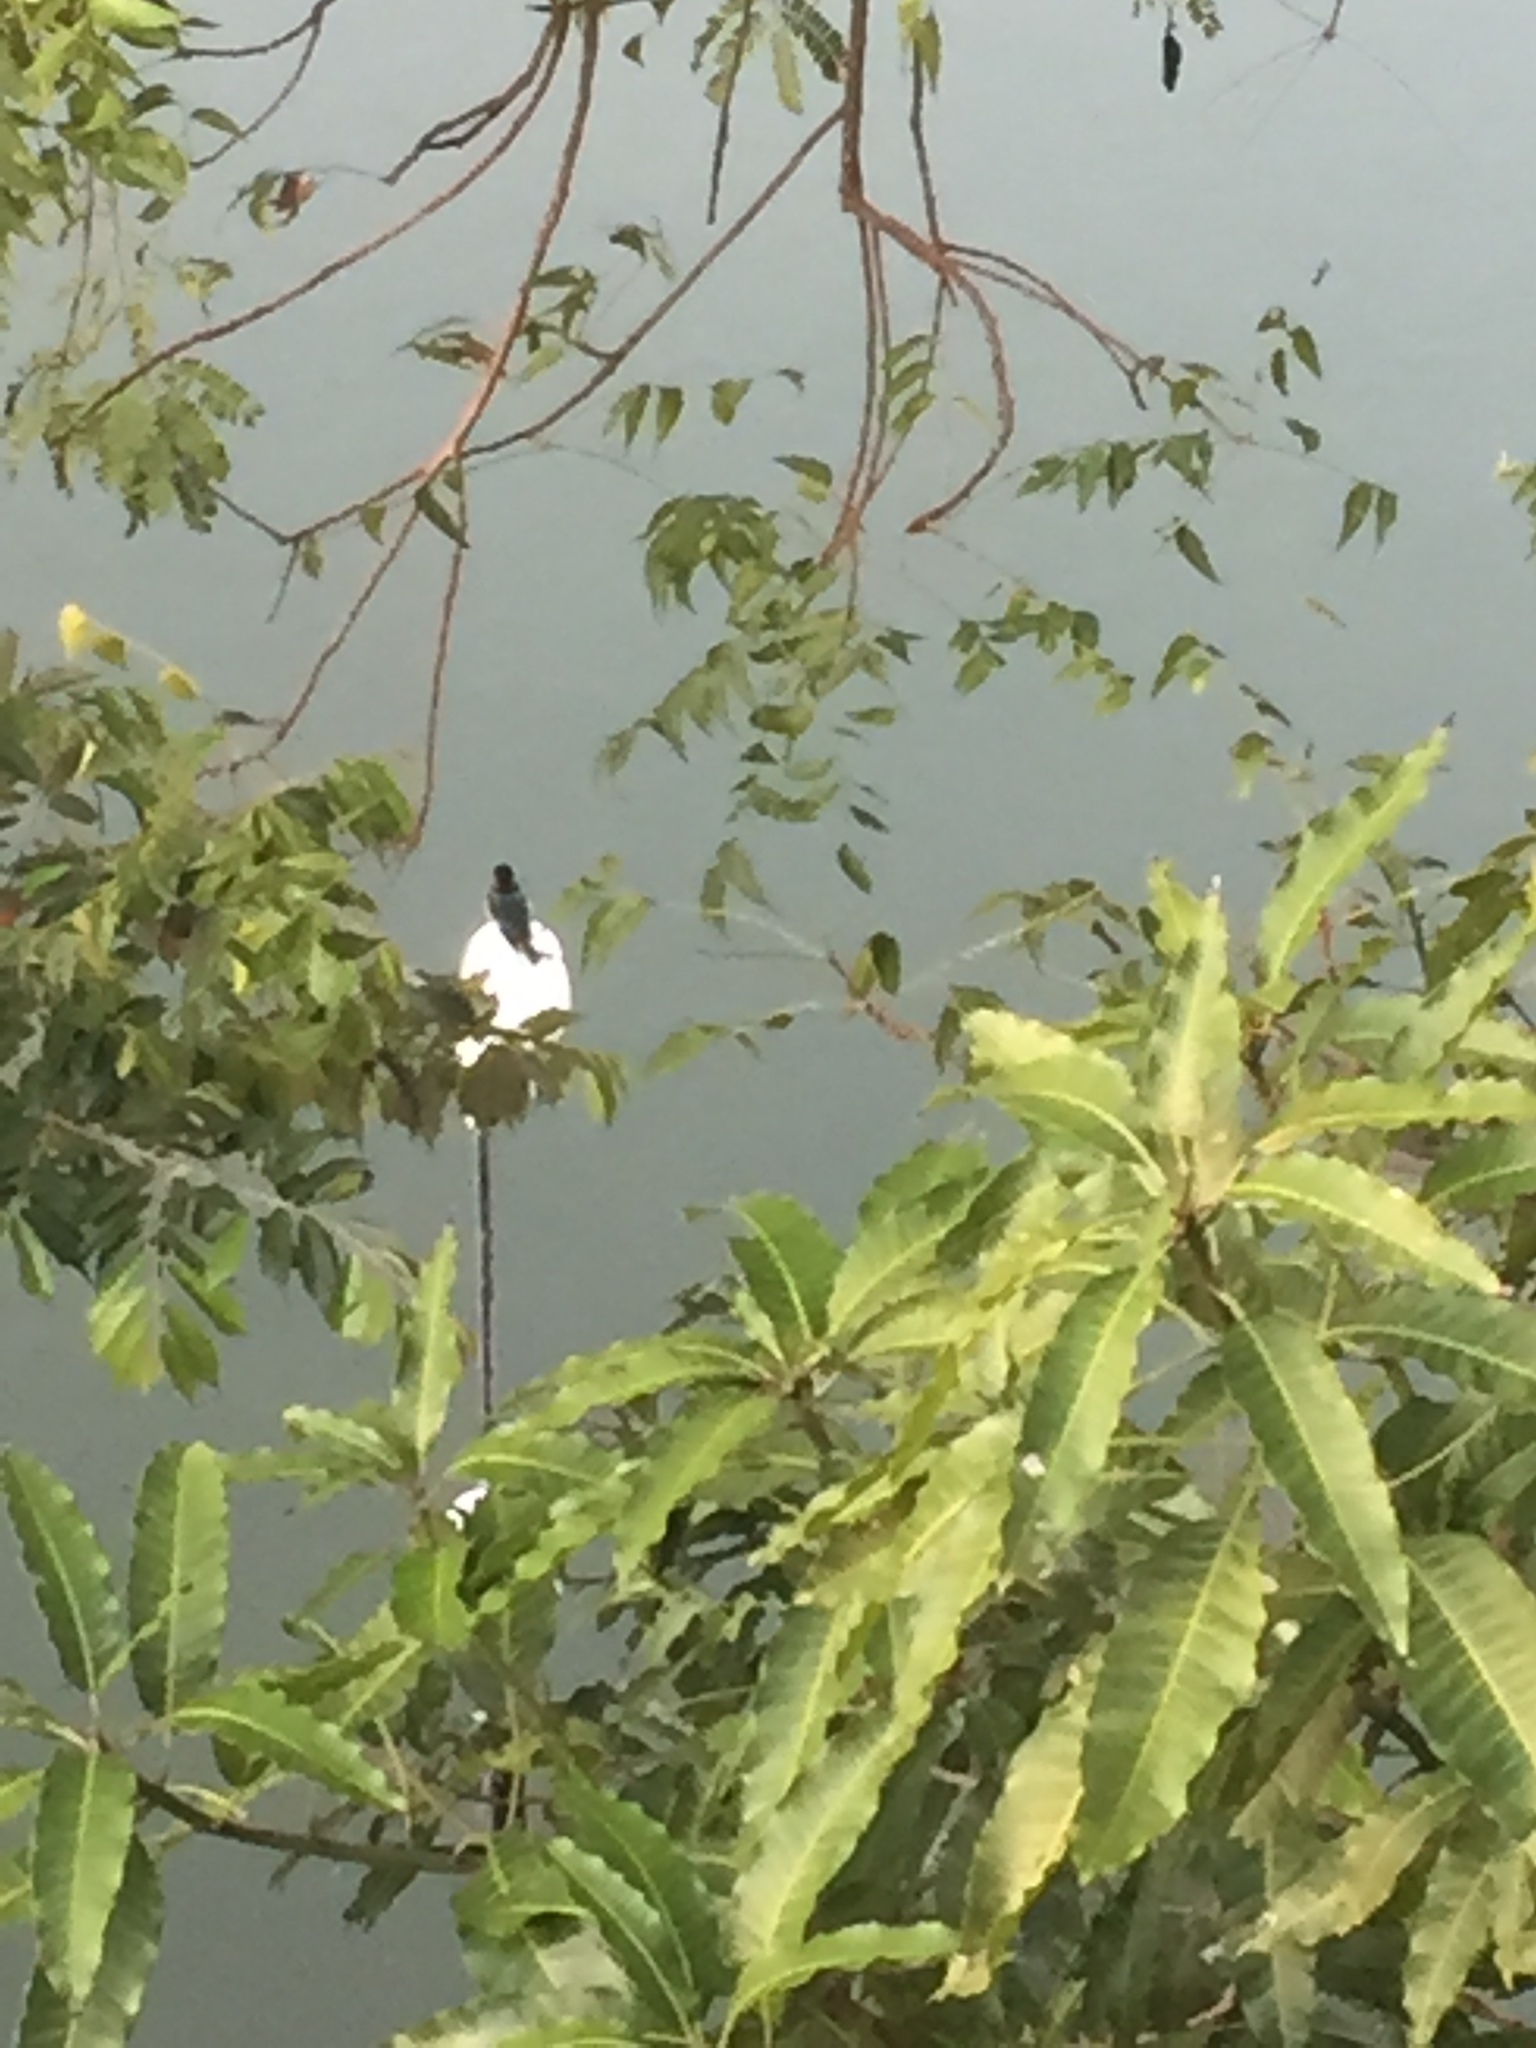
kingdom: Animalia
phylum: Chordata
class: Aves
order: Coraciiformes
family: Alcedinidae
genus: Halcyon
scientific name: Halcyon smyrnensis
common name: White-throated kingfisher
